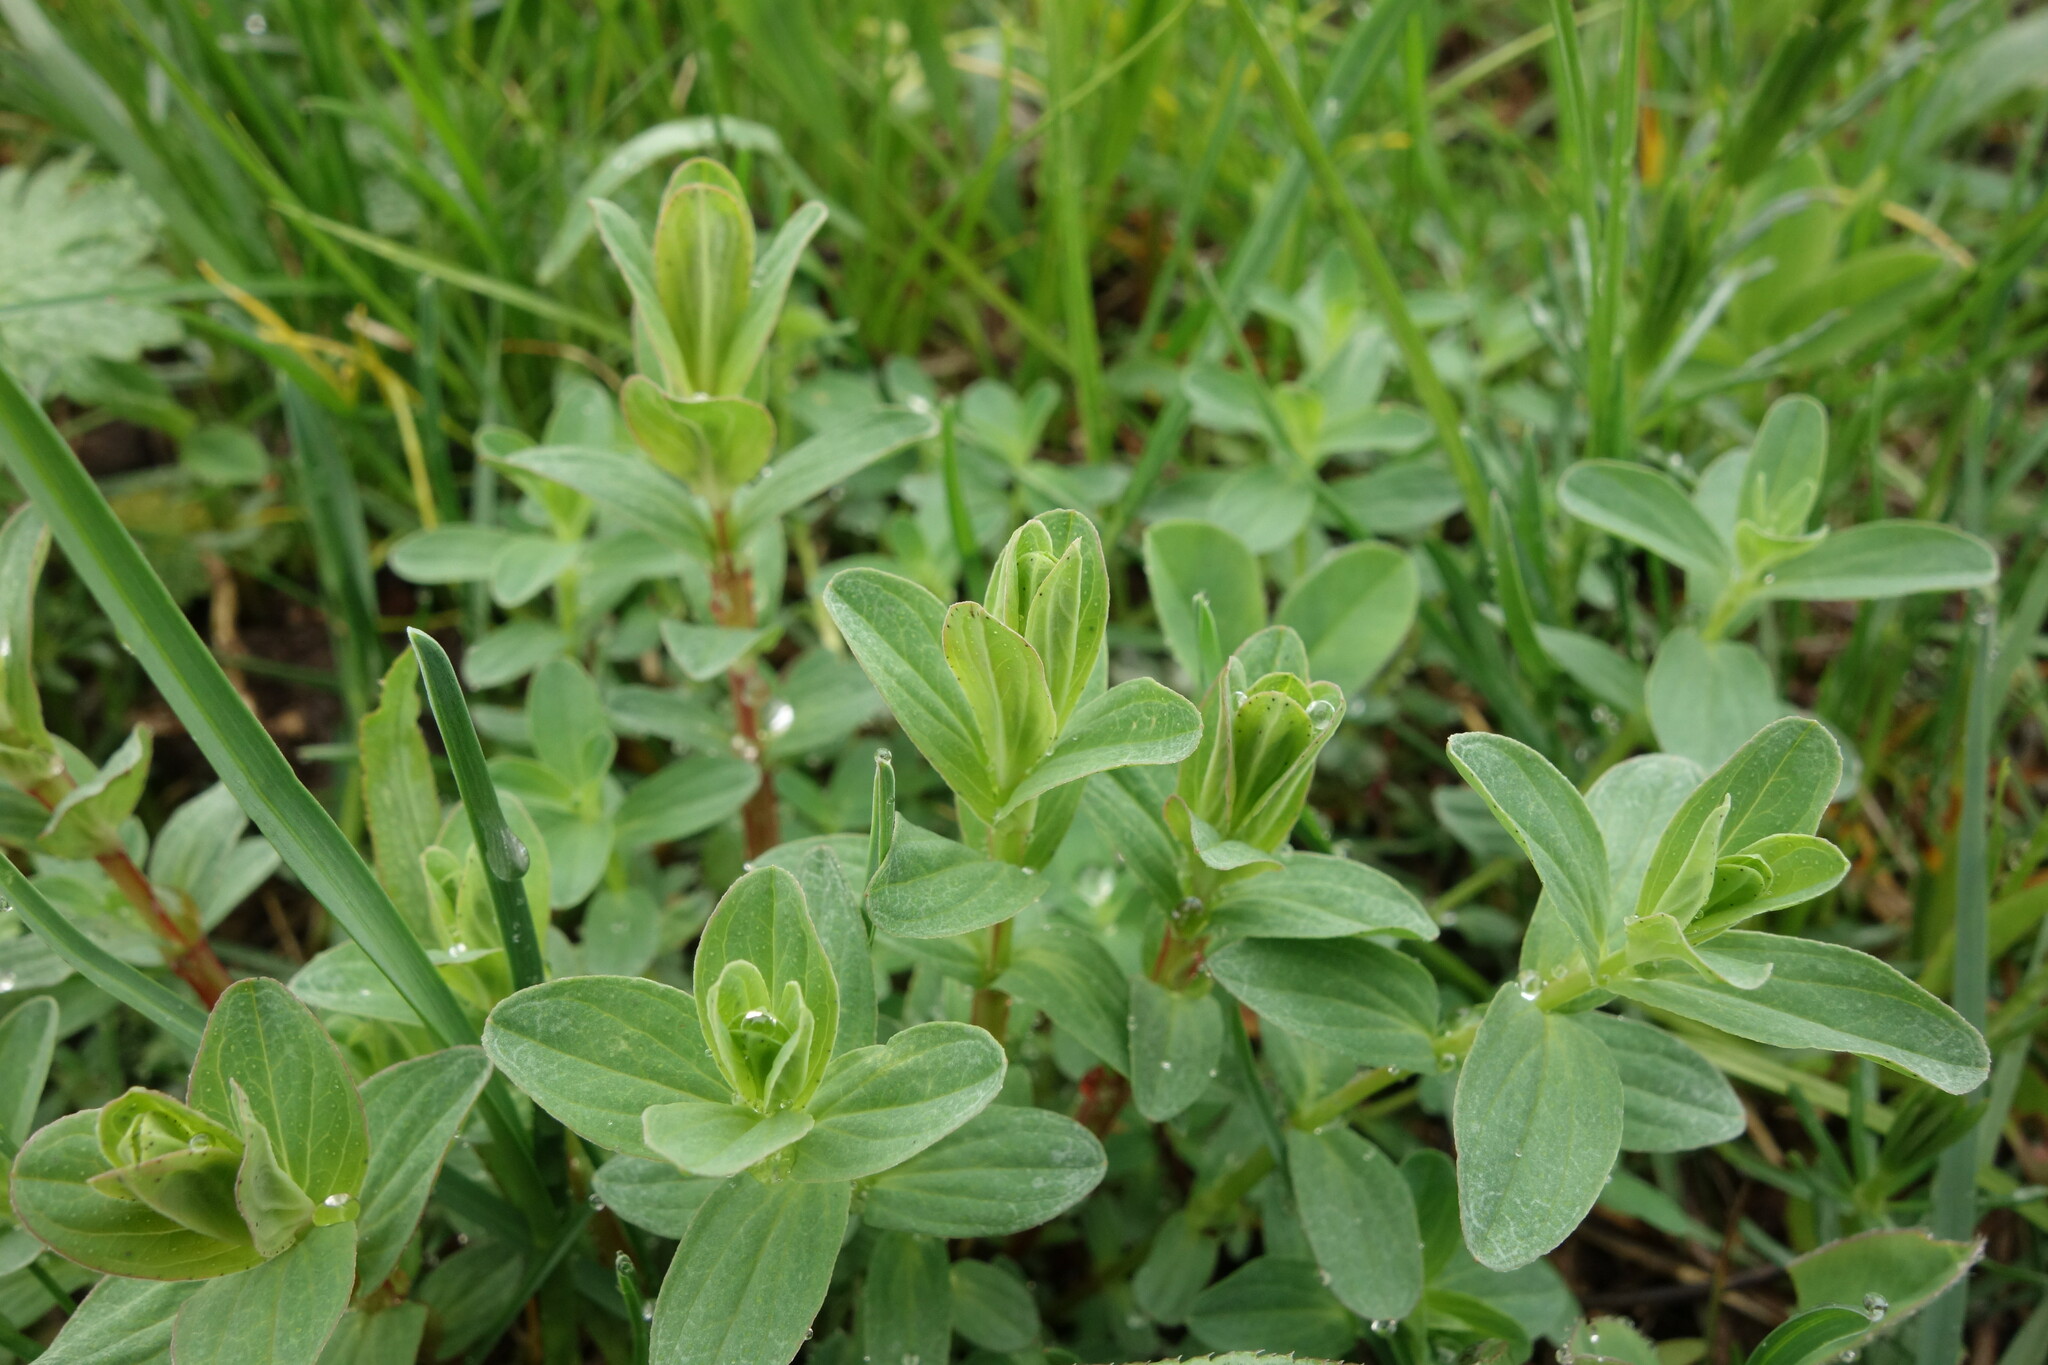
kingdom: Plantae
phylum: Tracheophyta
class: Magnoliopsida
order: Malpighiales
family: Hypericaceae
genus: Hypericum
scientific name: Hypericum perforatum
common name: Common st. johnswort
